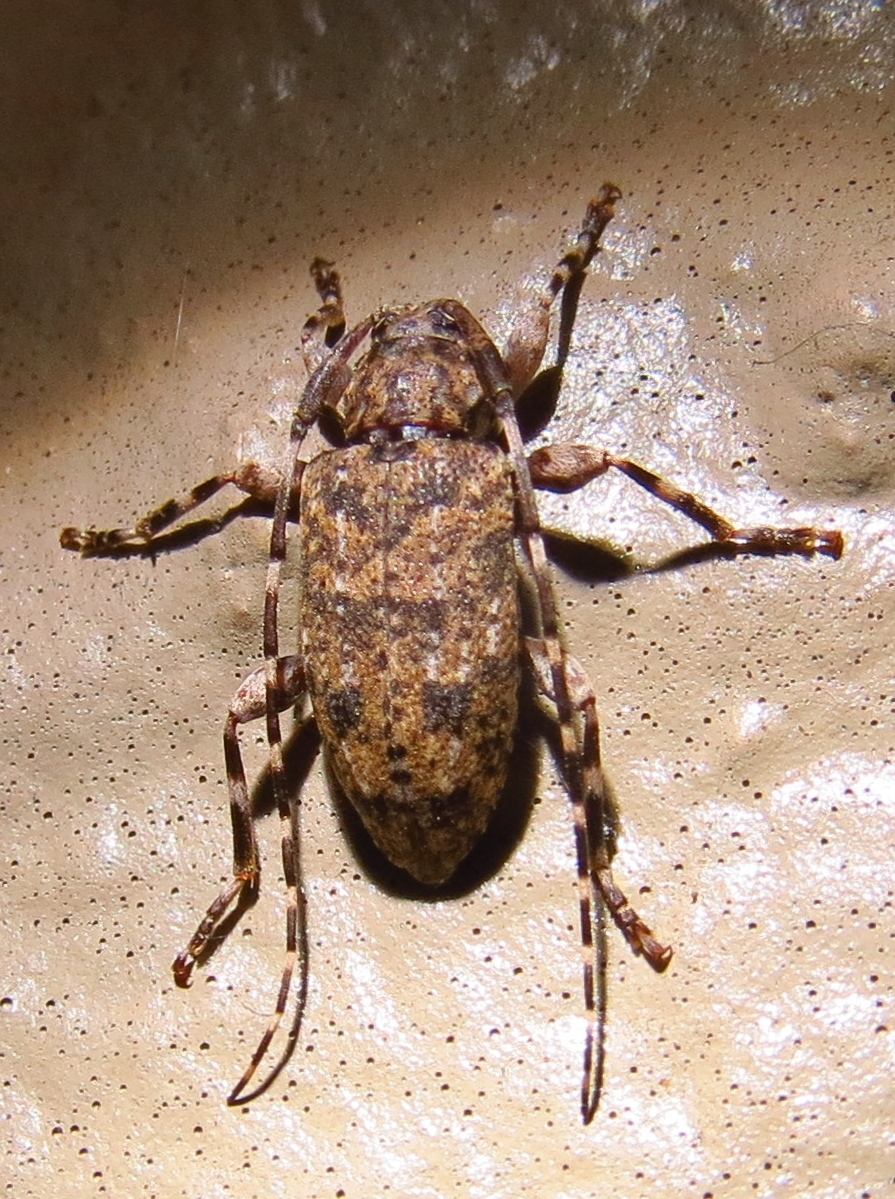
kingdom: Animalia
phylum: Arthropoda
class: Insecta
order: Coleoptera
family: Cerambycidae
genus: Astyleiopus
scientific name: Astyleiopus variegatus
